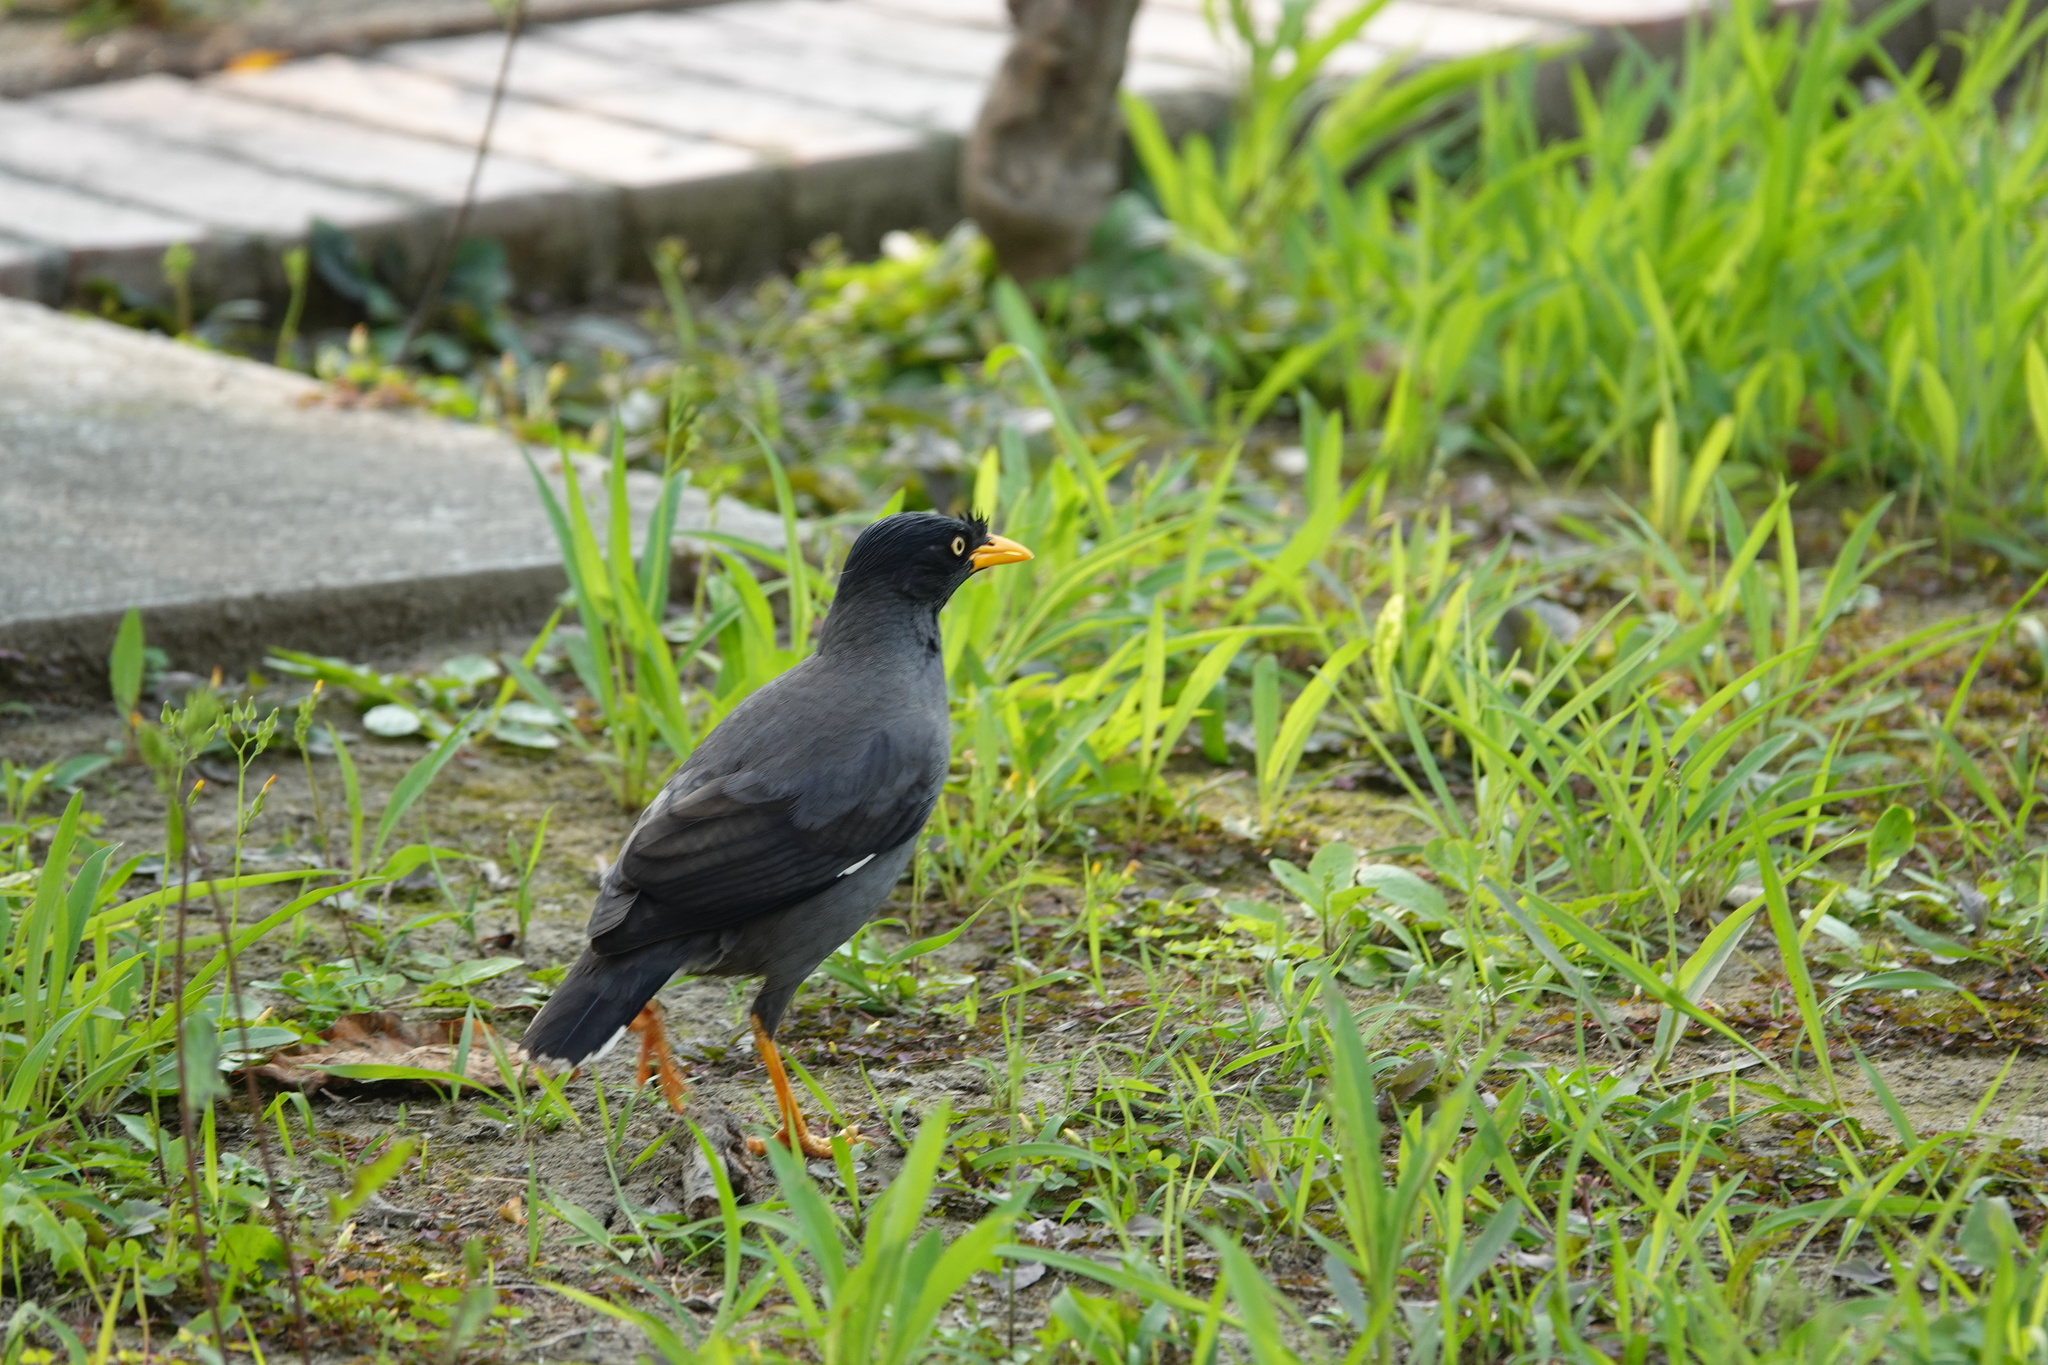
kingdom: Animalia
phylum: Chordata
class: Aves
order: Passeriformes
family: Sturnidae
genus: Acridotheres
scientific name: Acridotheres javanicus
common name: Javan myna
